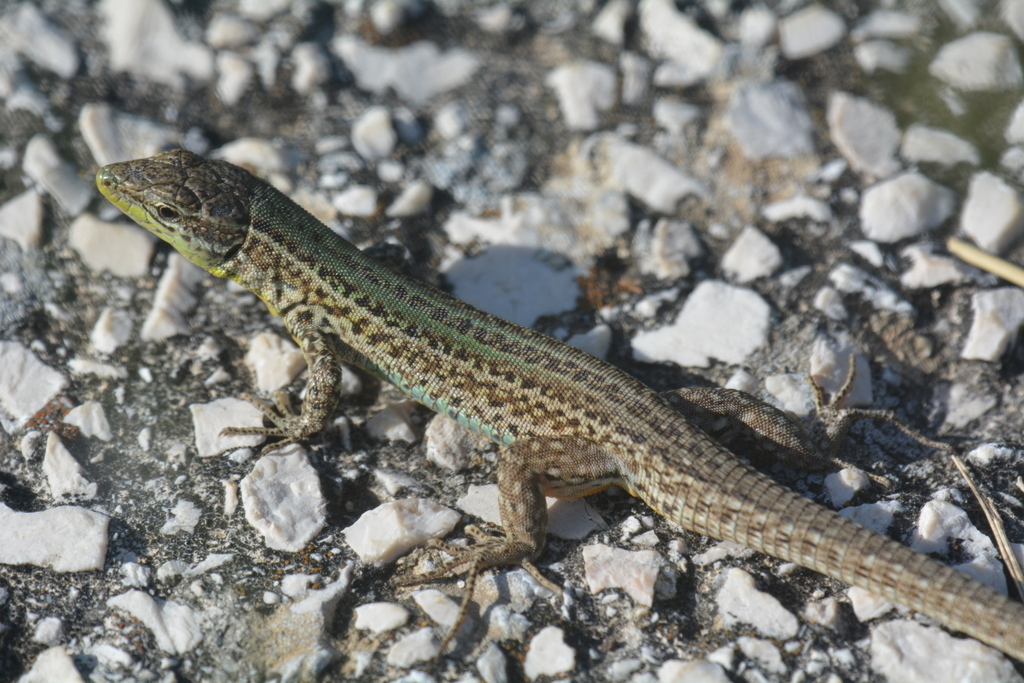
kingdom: Animalia
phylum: Chordata
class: Squamata
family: Lacertidae
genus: Podarcis
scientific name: Podarcis melisellensis
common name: Dalmatian wall lizard
